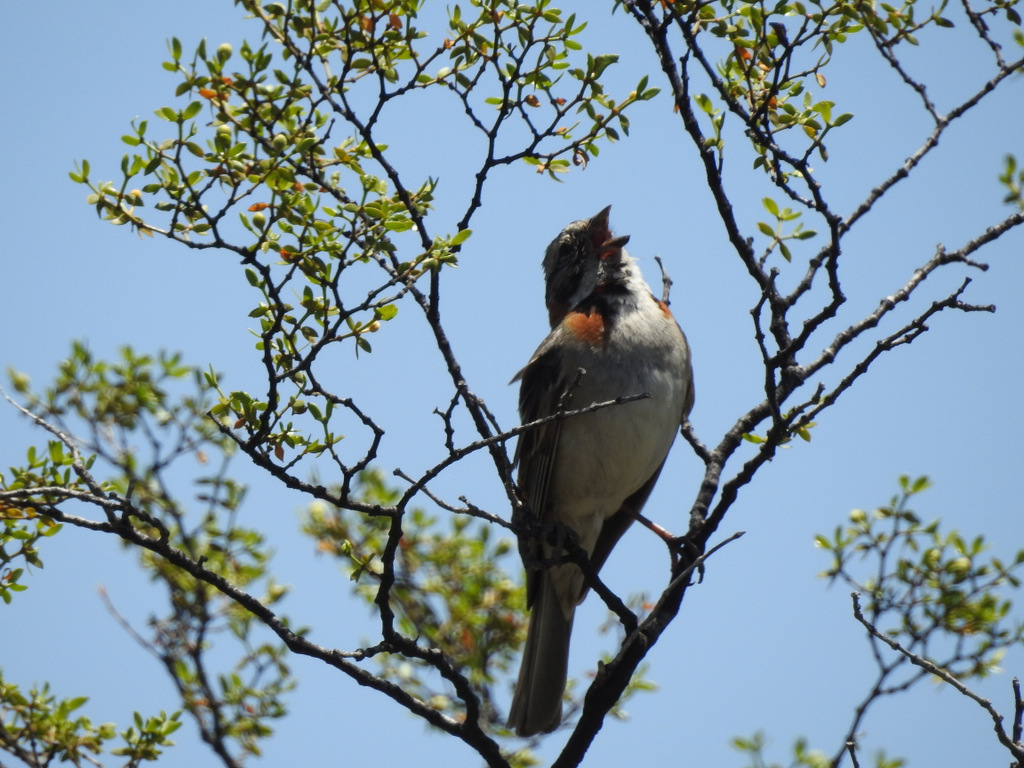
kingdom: Animalia
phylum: Chordata
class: Aves
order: Passeriformes
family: Passerellidae
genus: Zonotrichia
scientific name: Zonotrichia capensis
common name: Rufous-collared sparrow
